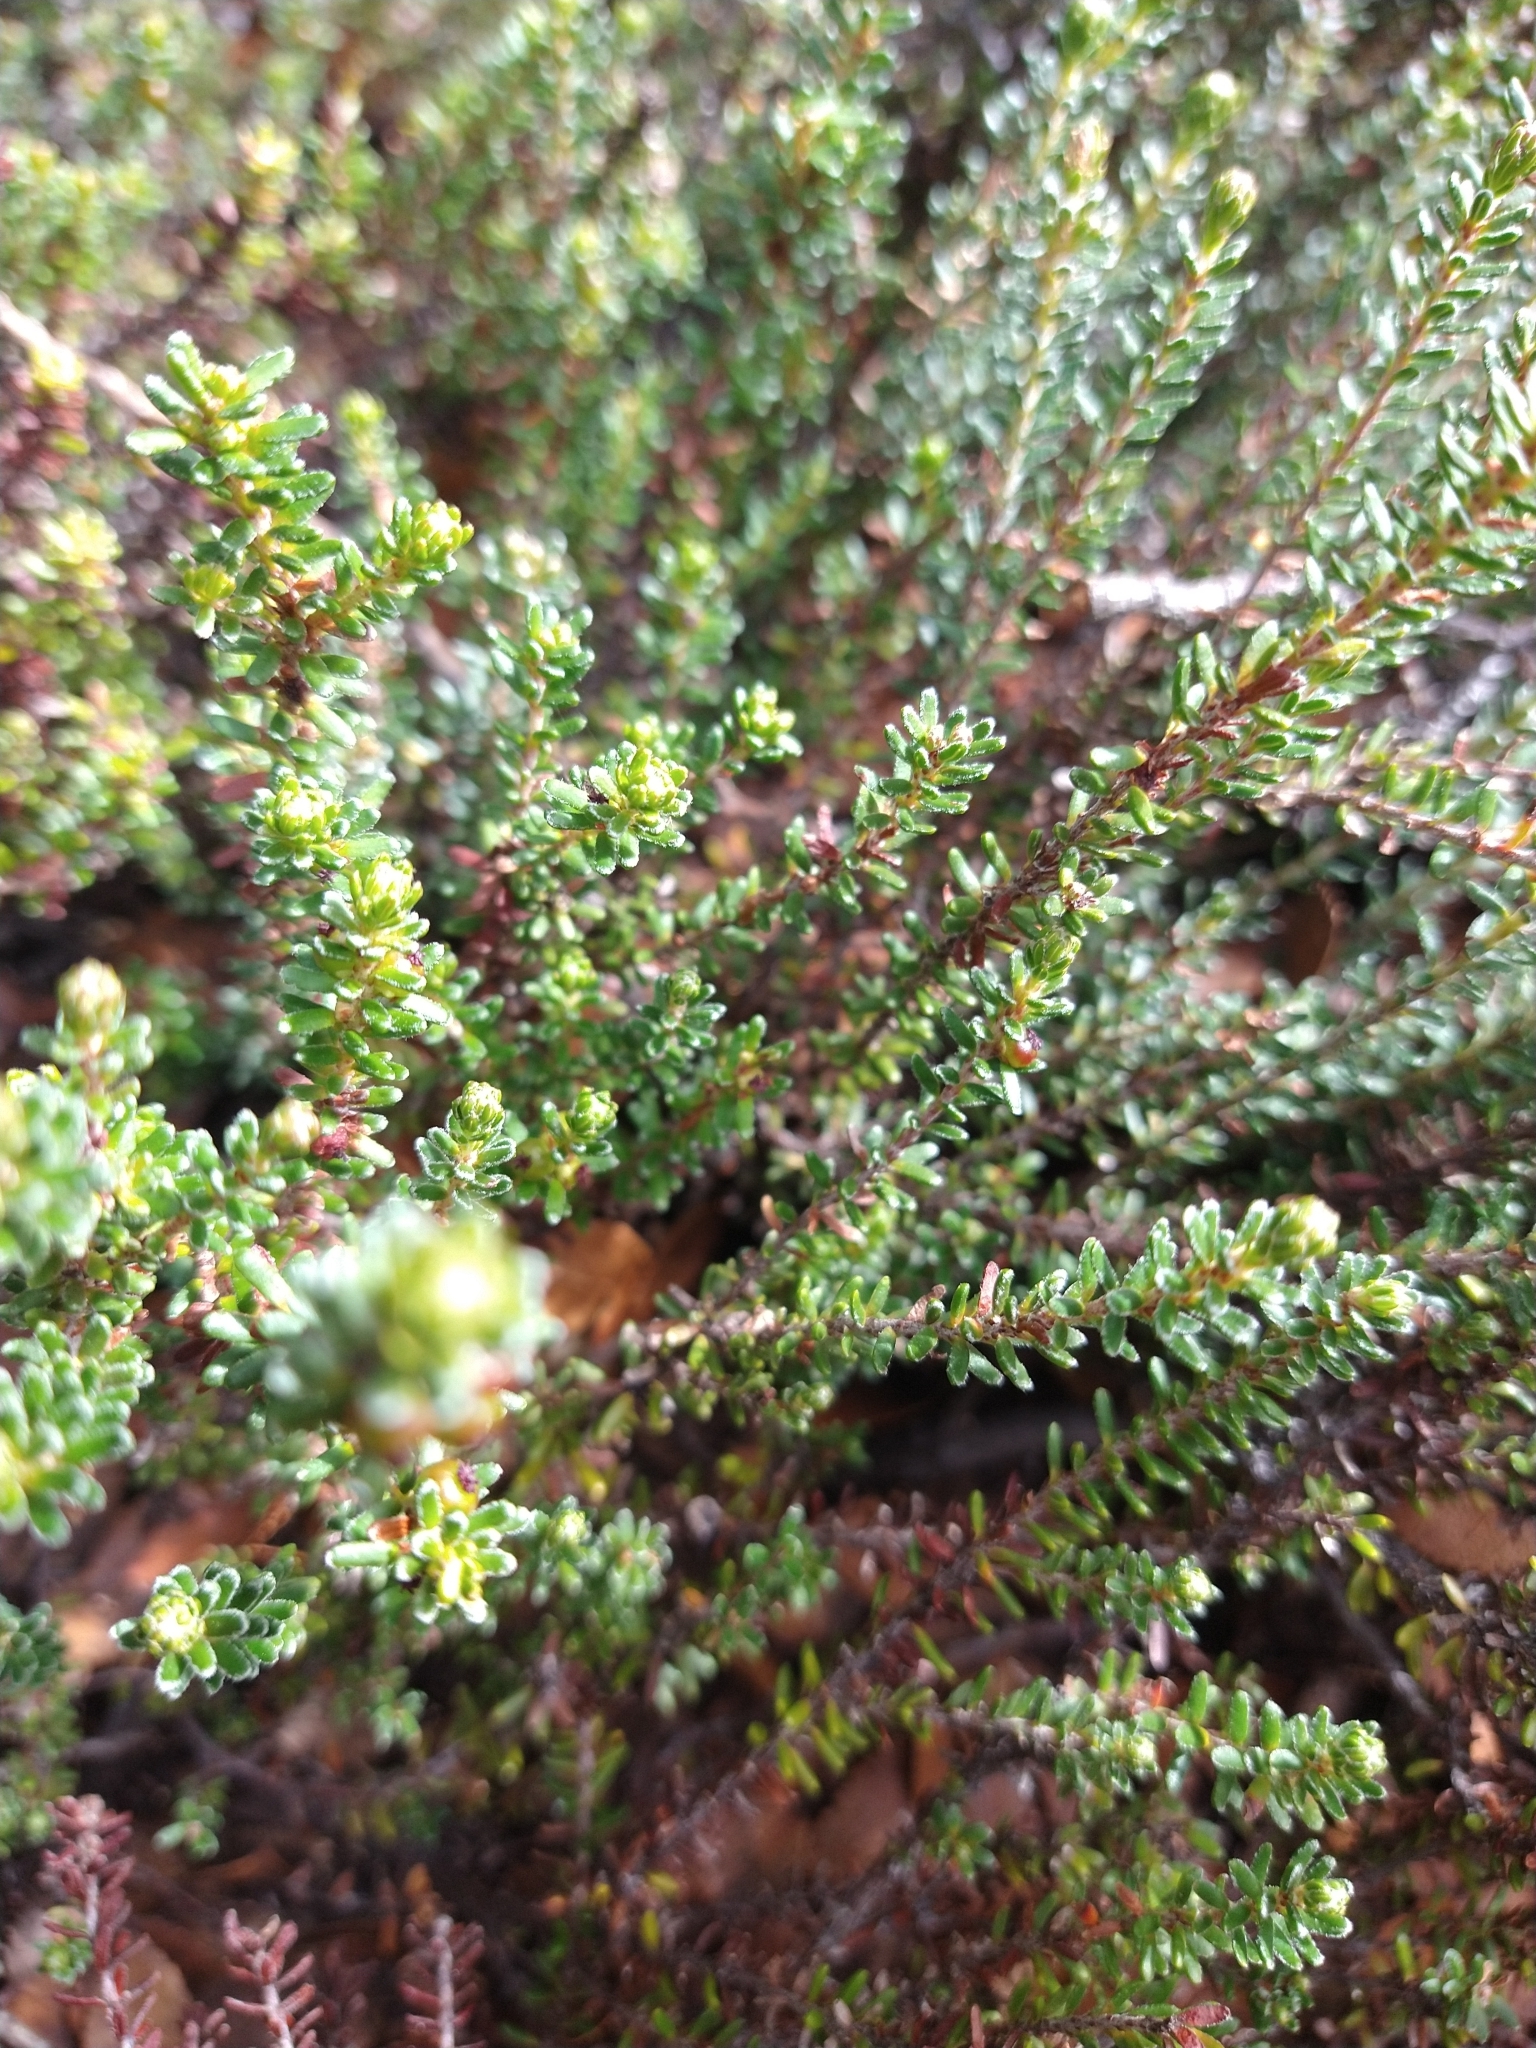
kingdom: Plantae
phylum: Tracheophyta
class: Magnoliopsida
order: Ericales
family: Ericaceae
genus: Empetrum
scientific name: Empetrum rubrum
